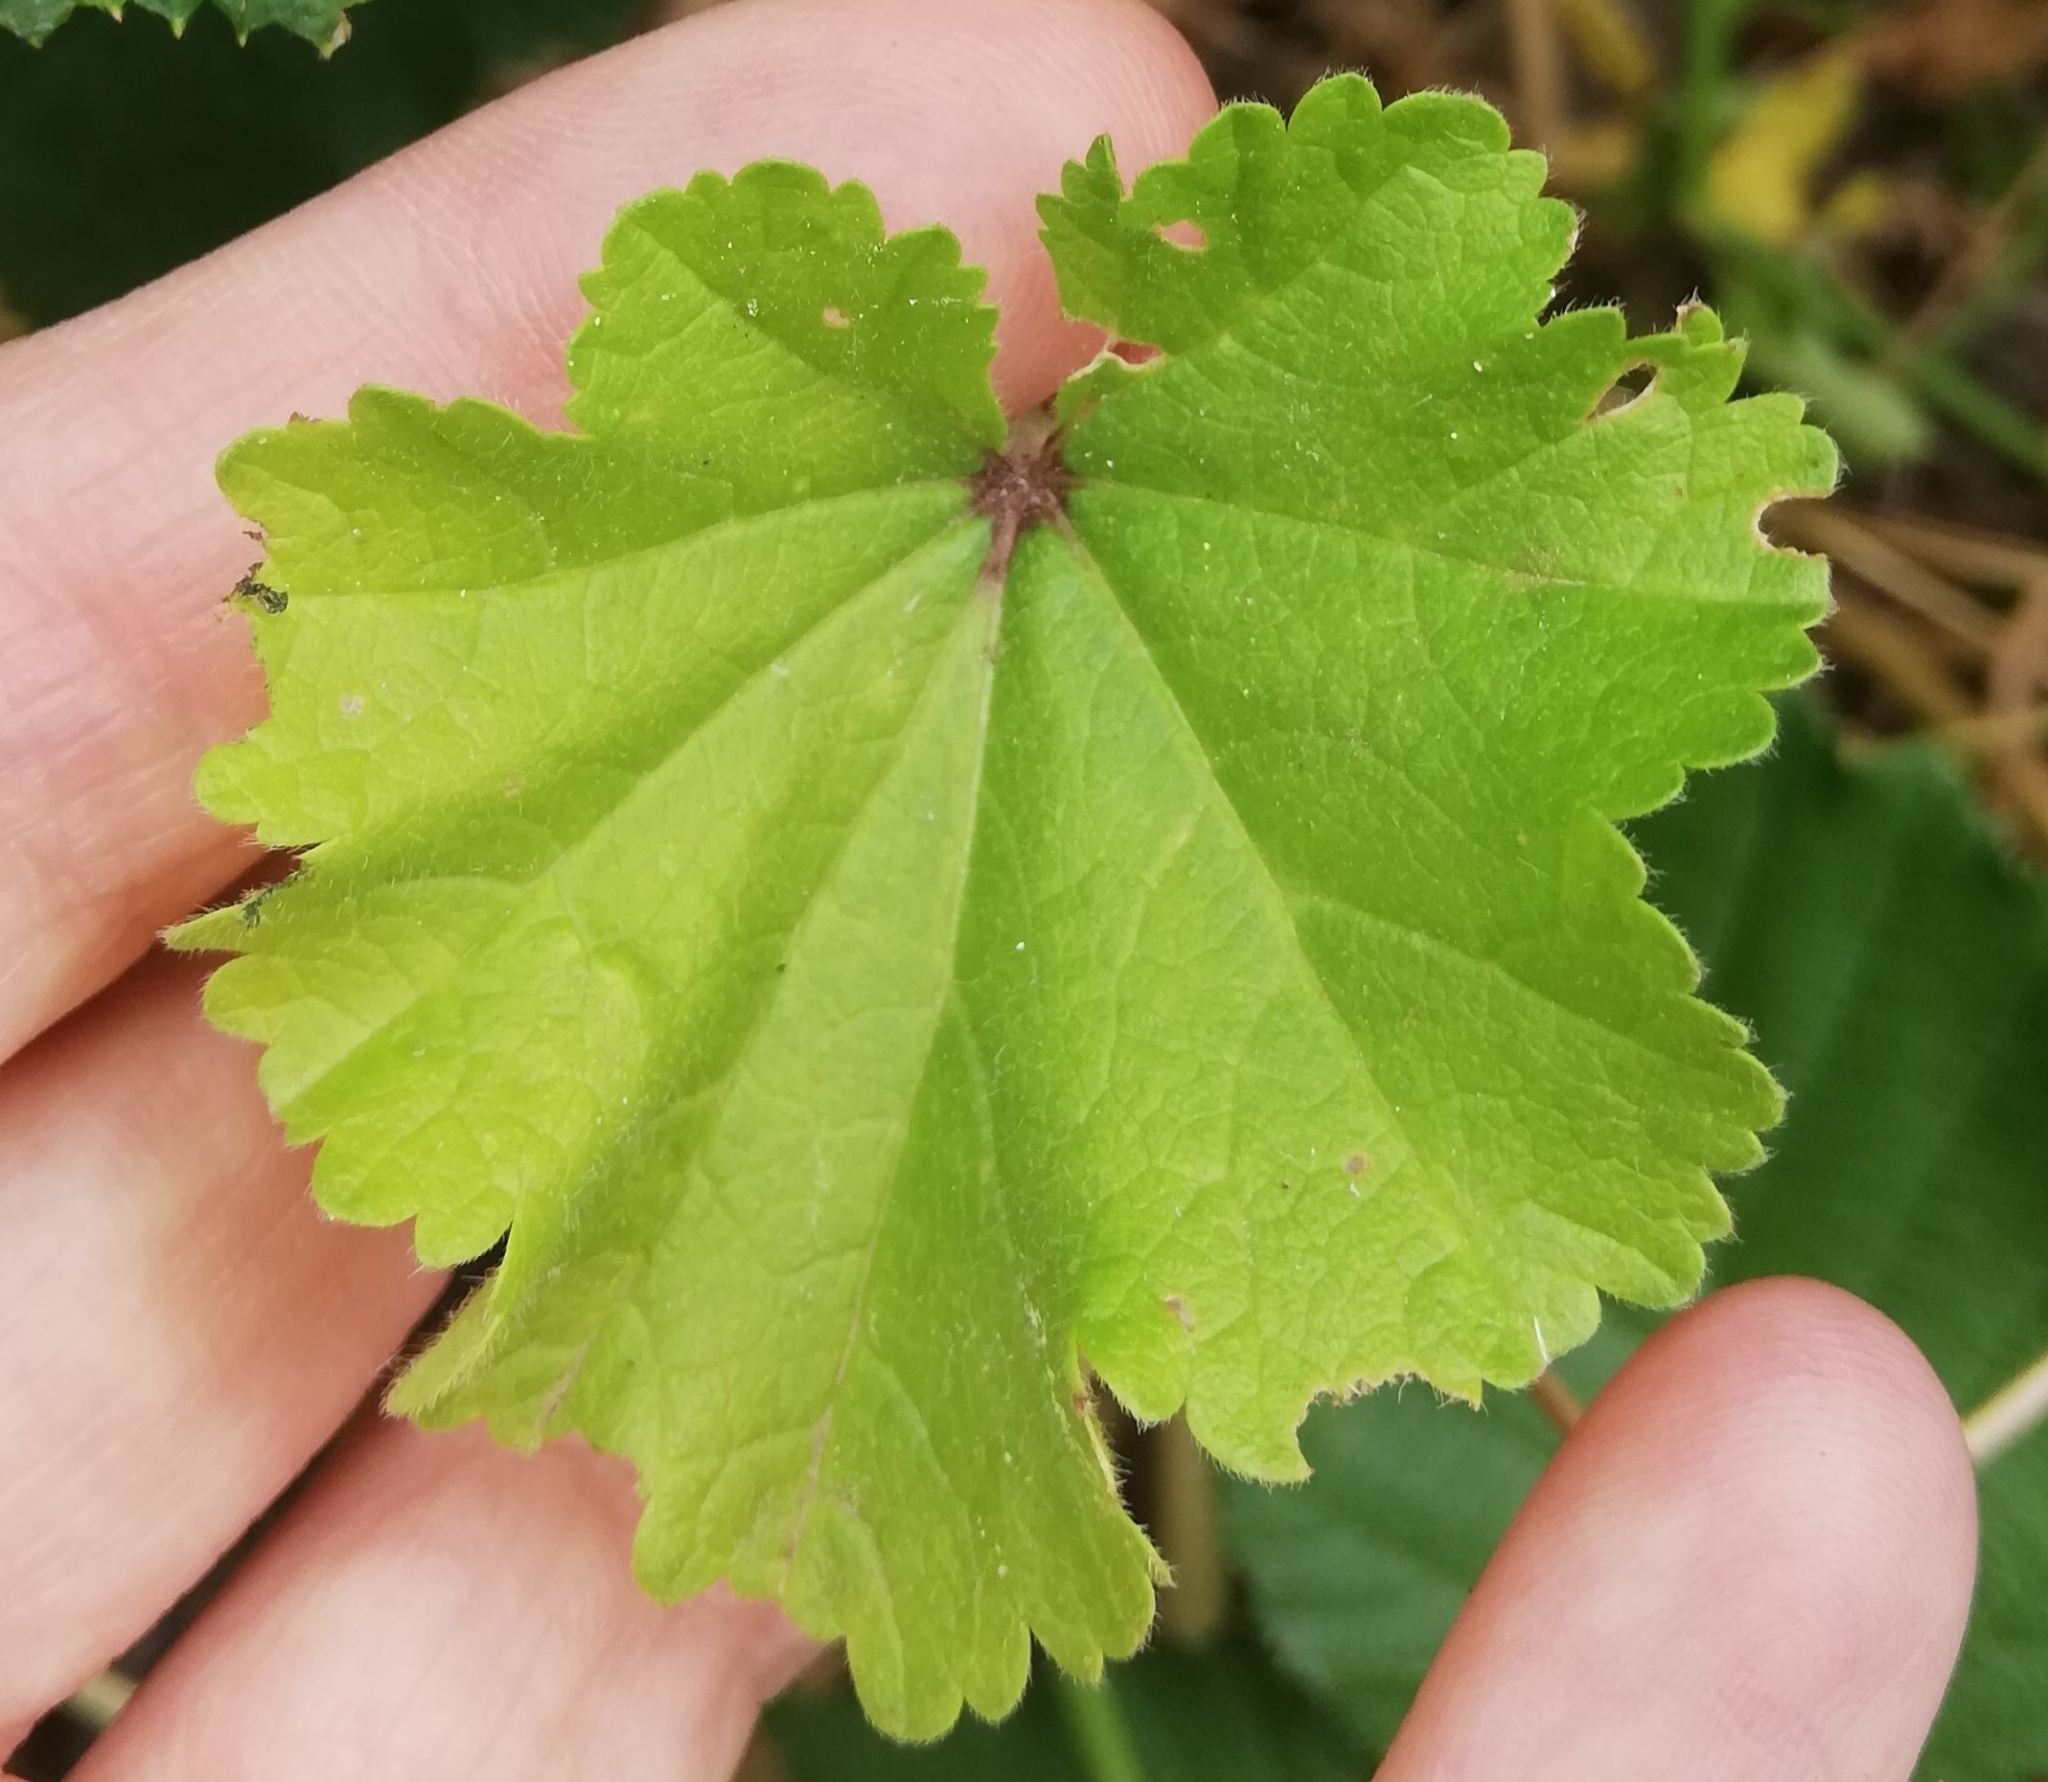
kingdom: Plantae
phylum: Tracheophyta
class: Magnoliopsida
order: Malvales
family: Malvaceae
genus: Malva
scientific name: Malva sylvestris
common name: Common mallow
